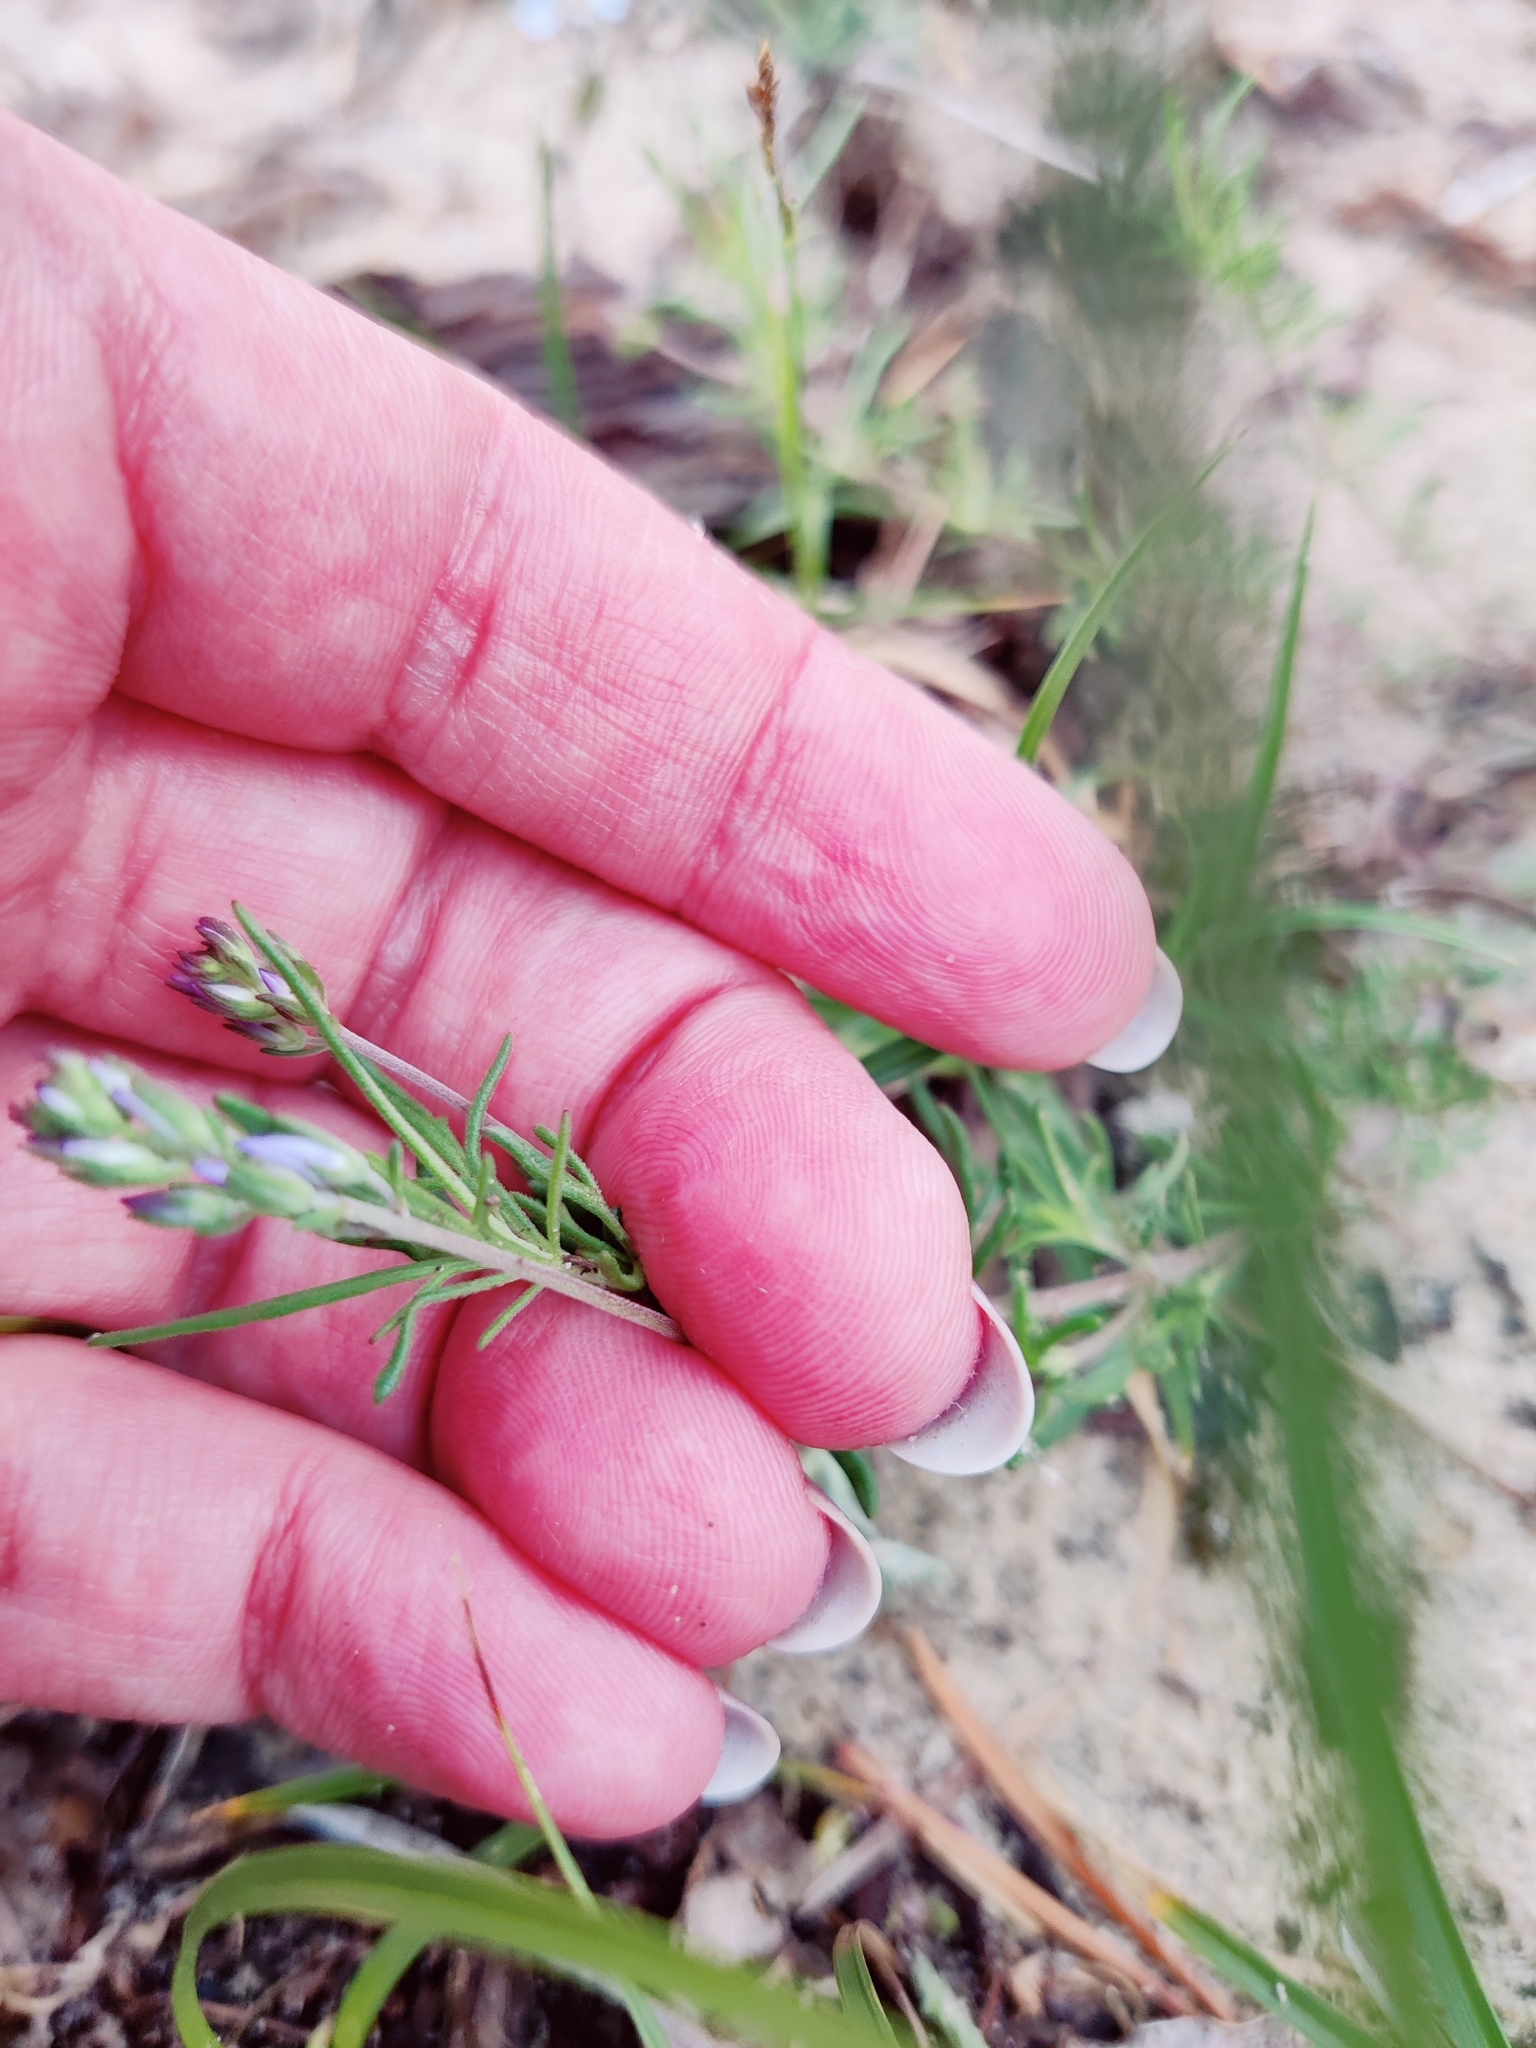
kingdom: Plantae
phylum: Tracheophyta
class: Magnoliopsida
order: Lamiales
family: Plantaginaceae
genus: Veronica
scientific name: Veronica multifida
